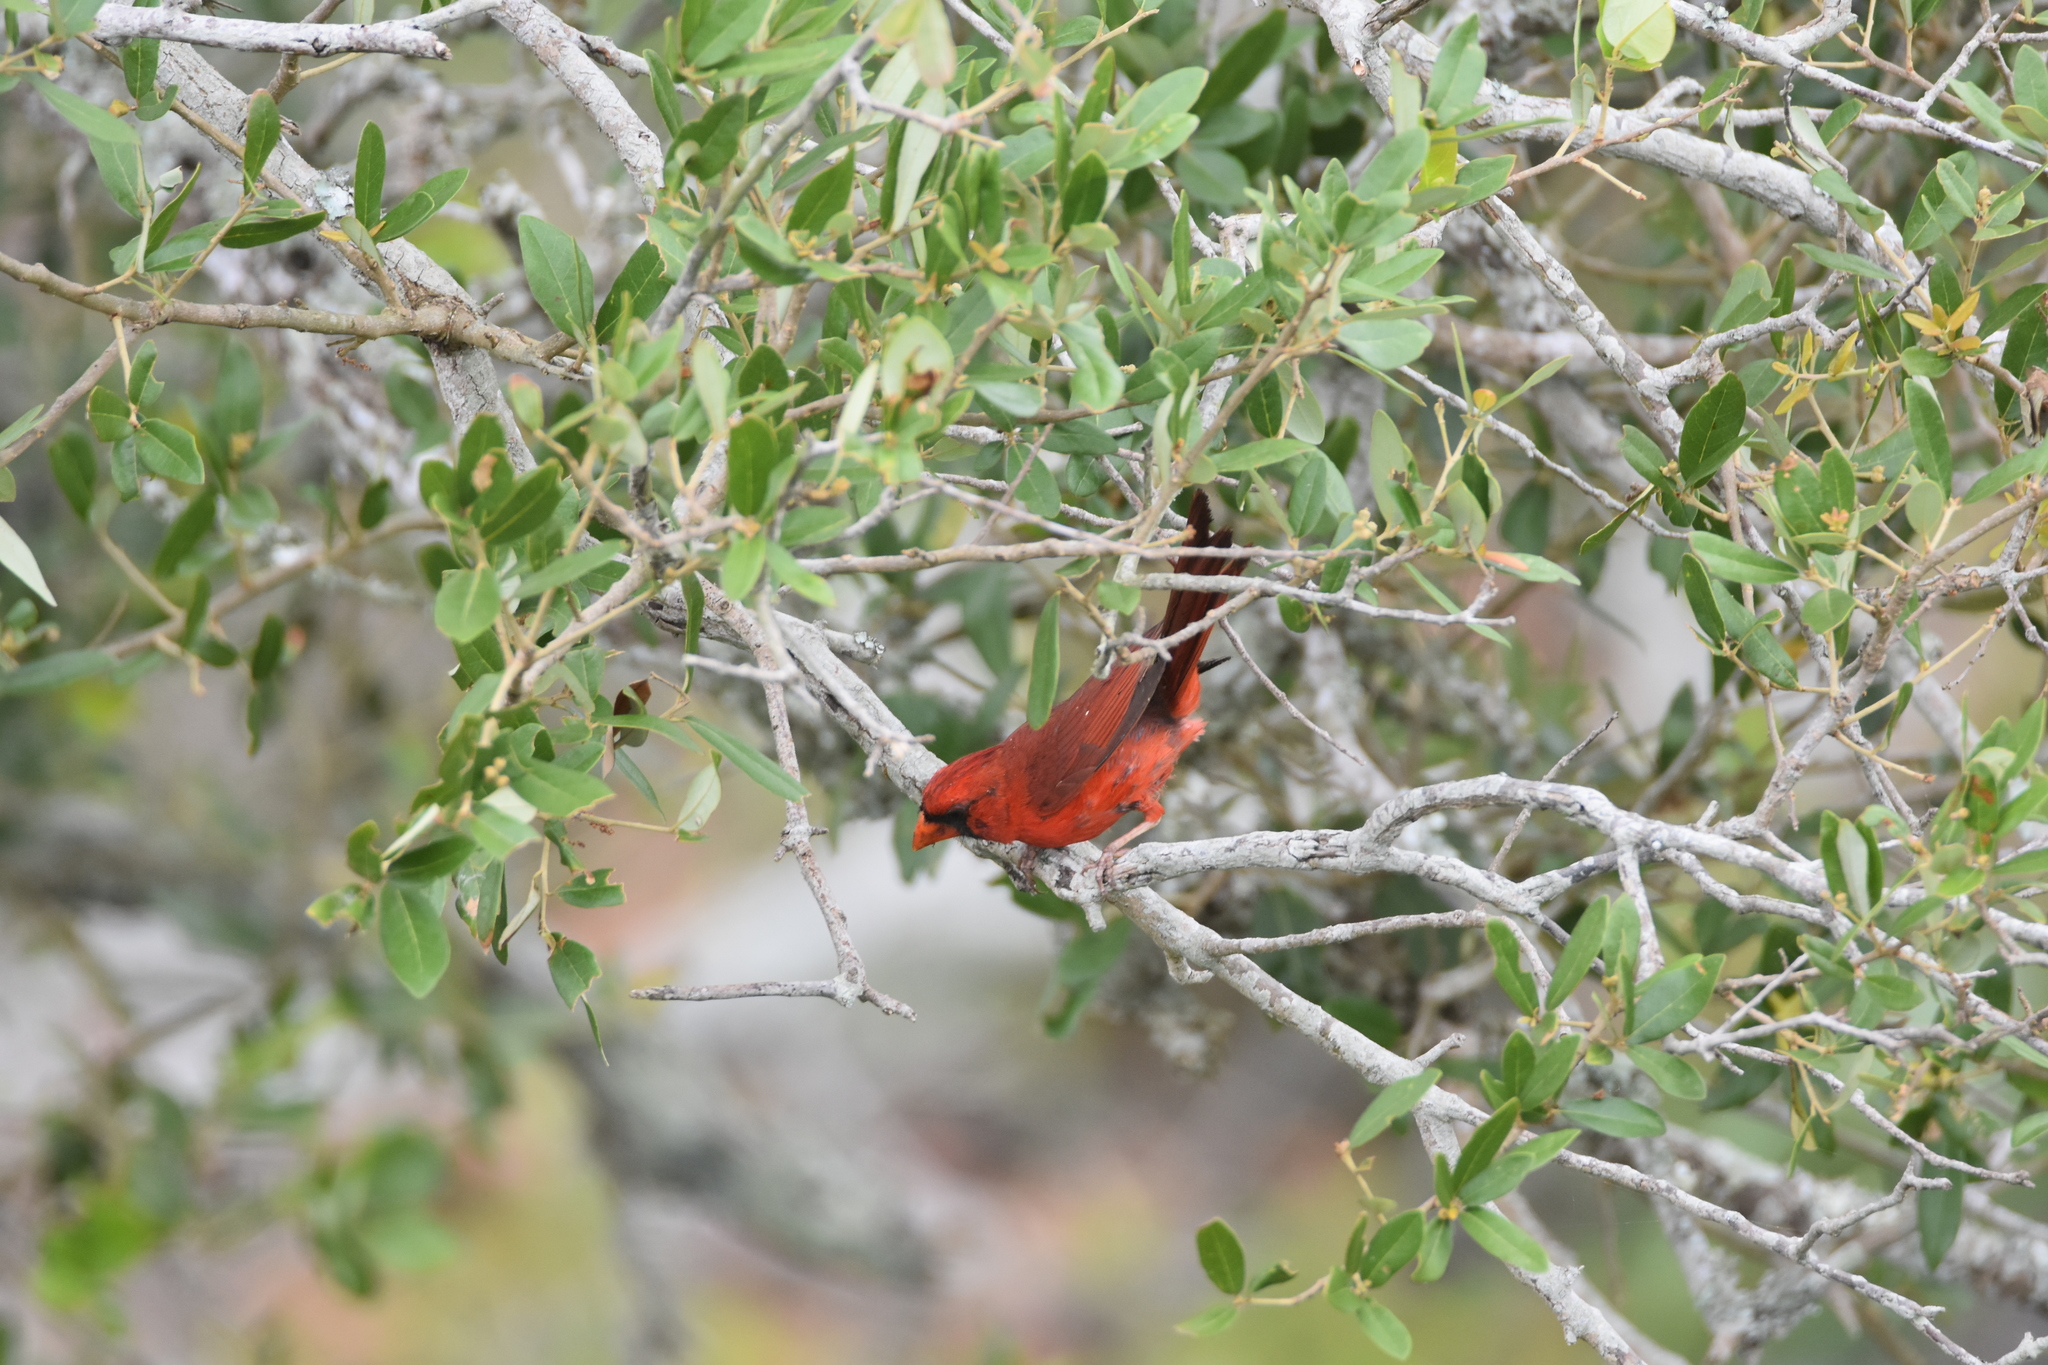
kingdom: Animalia
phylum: Chordata
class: Aves
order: Passeriformes
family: Cardinalidae
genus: Cardinalis
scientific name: Cardinalis cardinalis
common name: Northern cardinal
